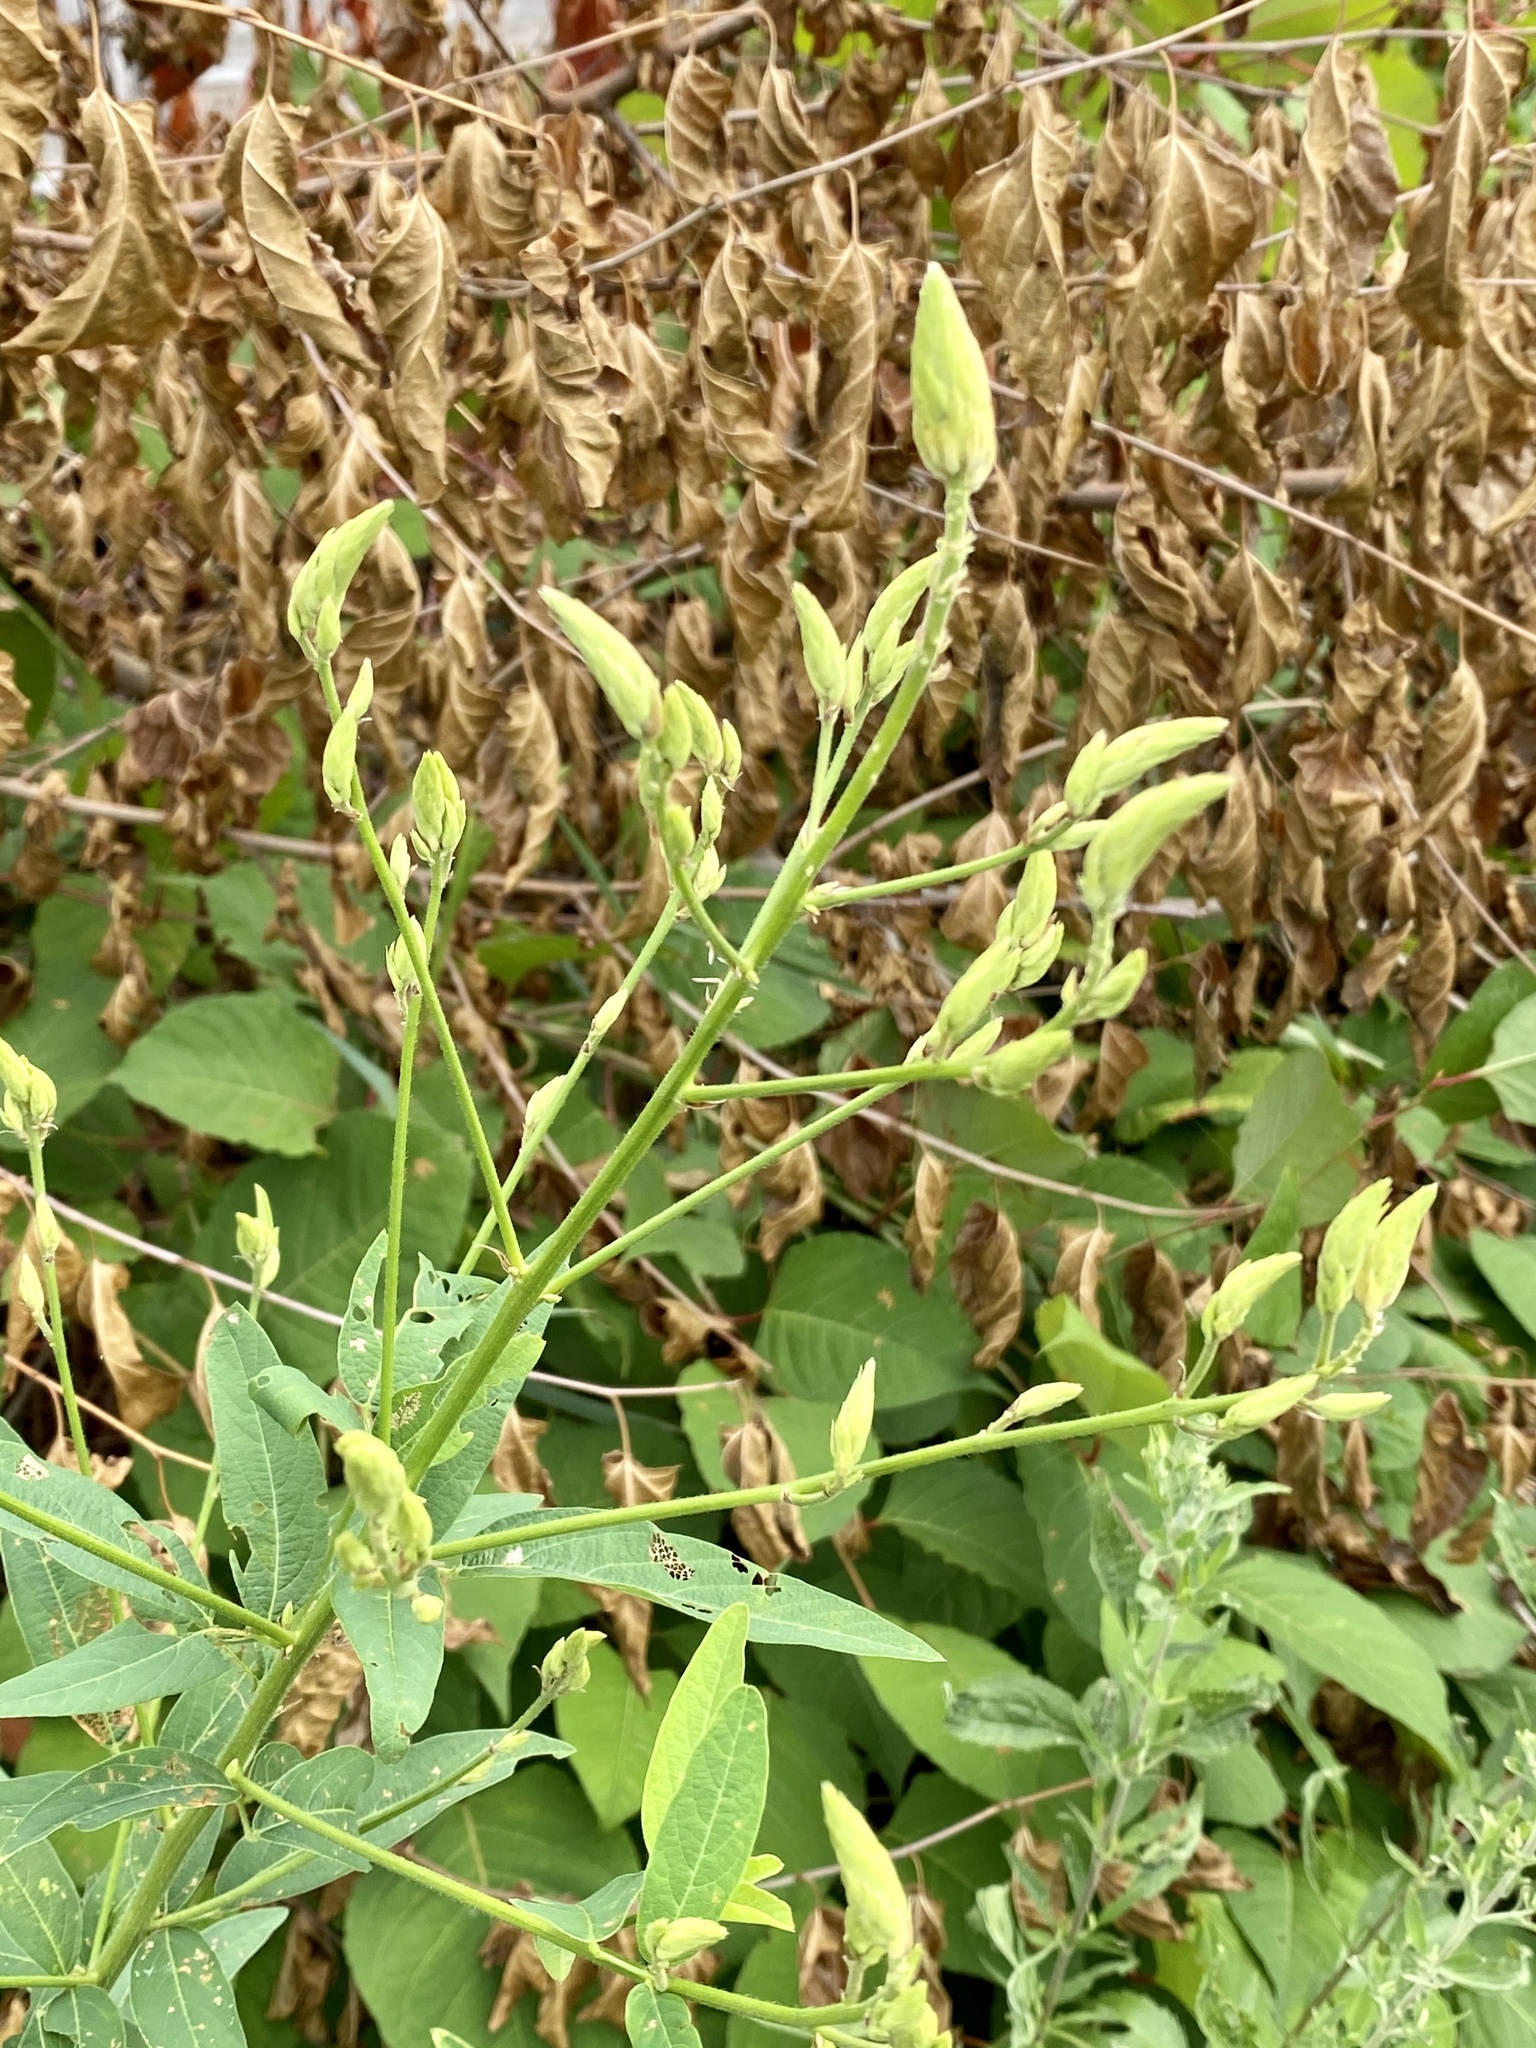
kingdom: Plantae
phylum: Tracheophyta
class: Magnoliopsida
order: Fabales
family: Fabaceae
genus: Desmodium
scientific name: Desmodium canadense
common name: Canada tick-trefoil
